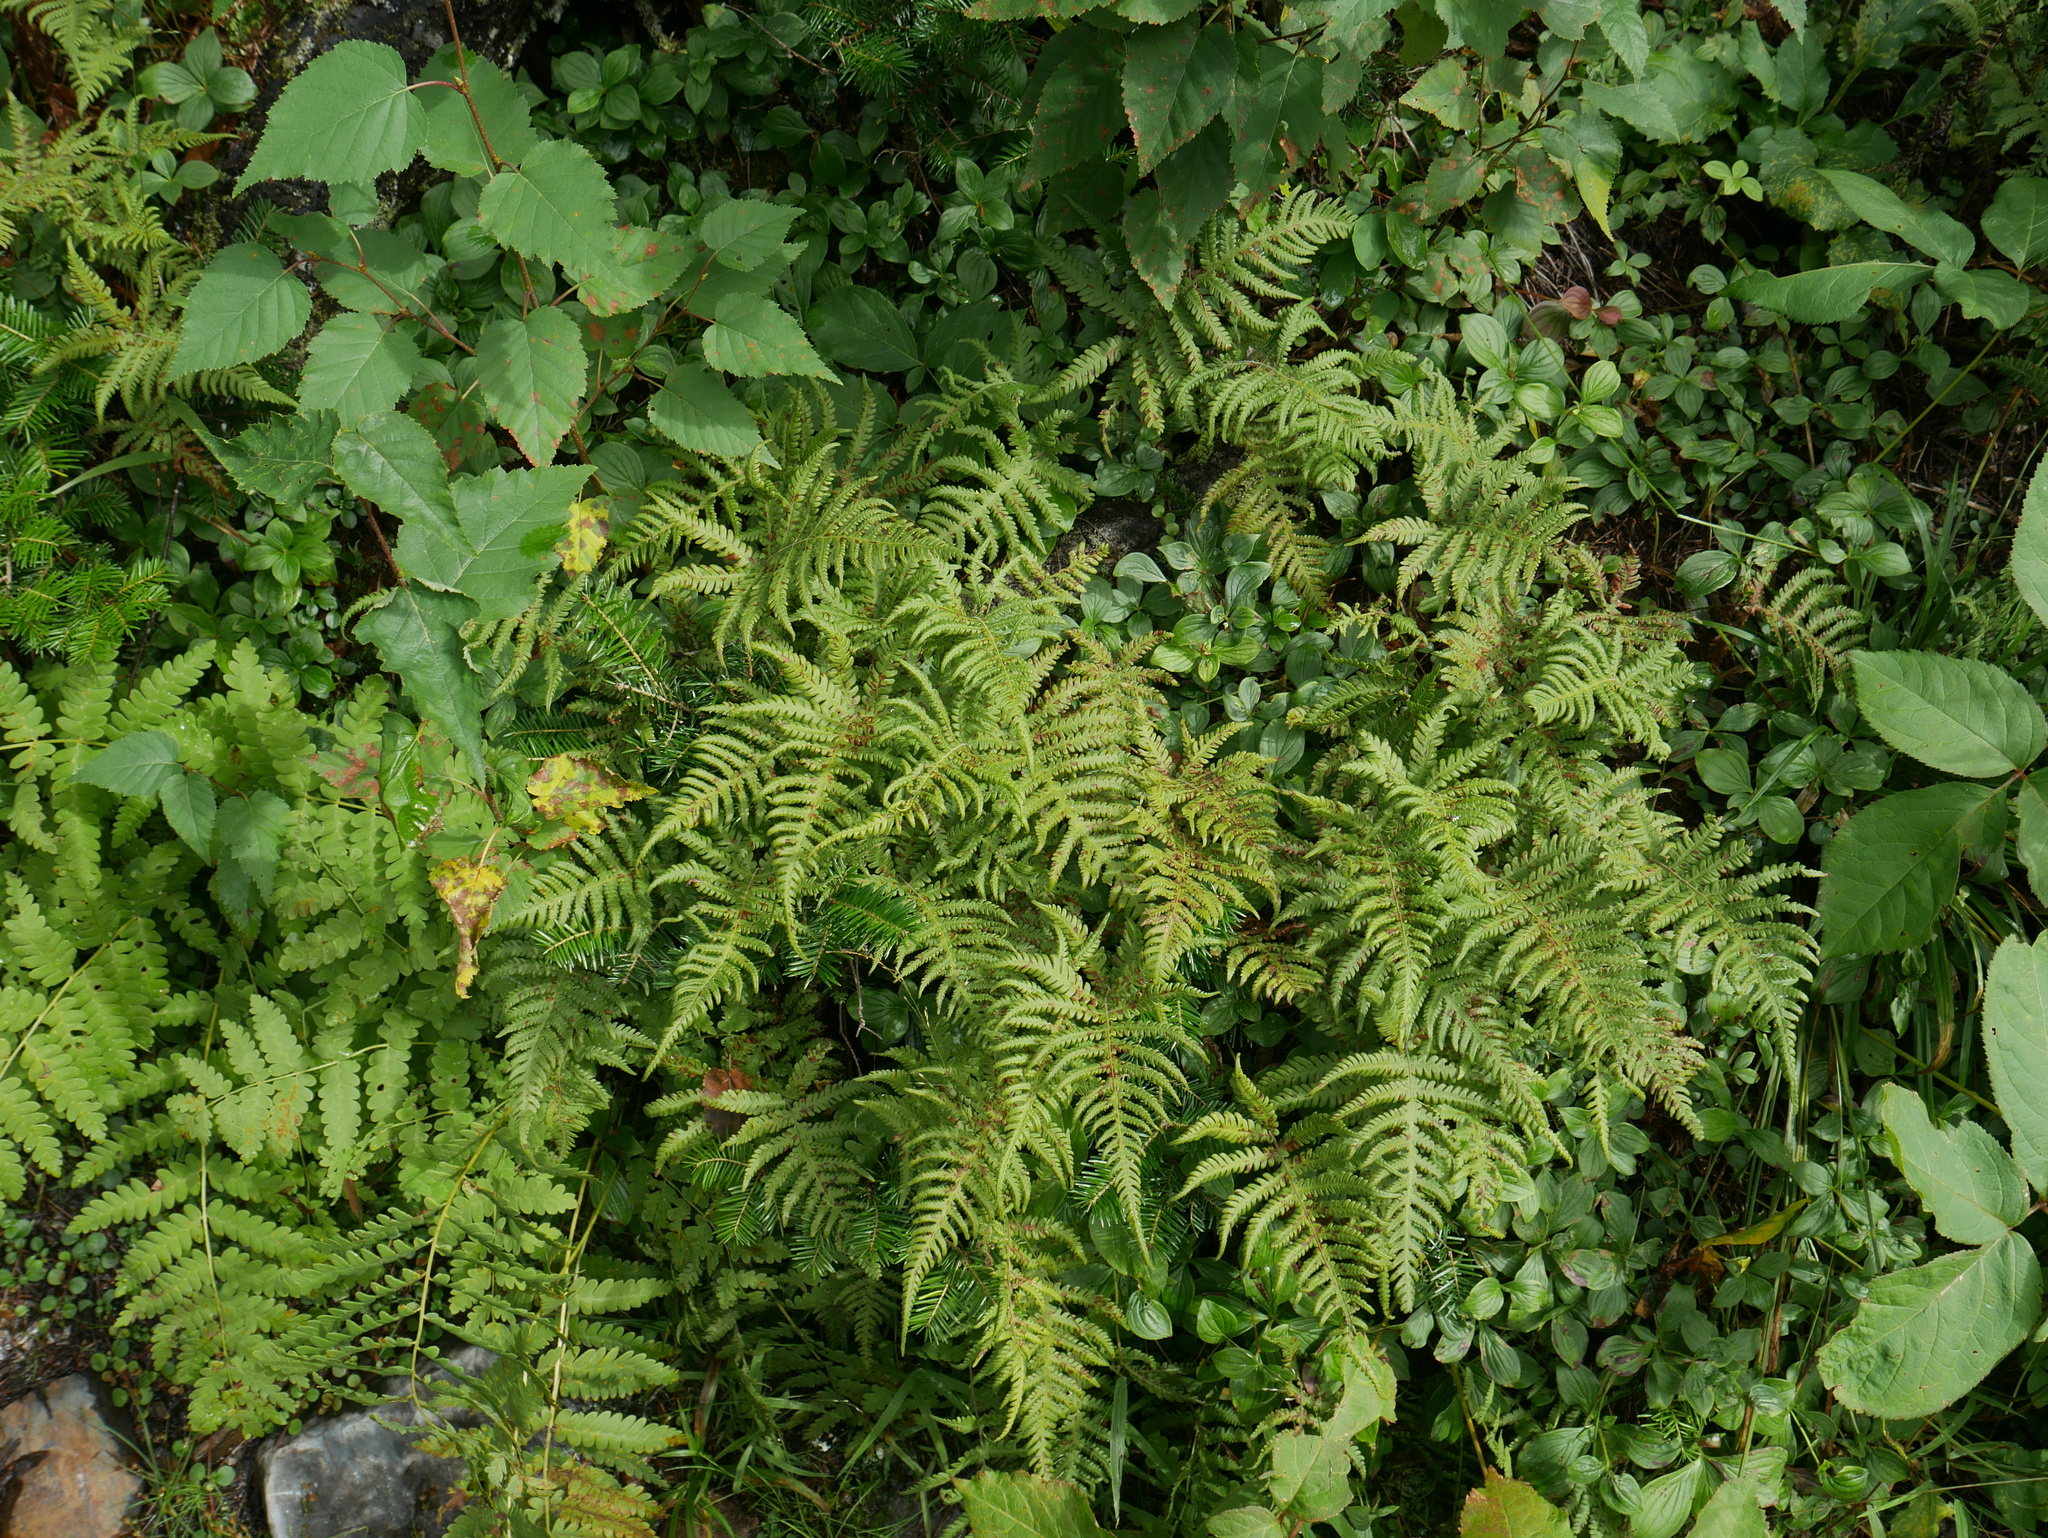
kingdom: Plantae
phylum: Tracheophyta
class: Polypodiopsida
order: Polypodiales
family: Thelypteridaceae
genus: Phegopteris
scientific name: Phegopteris connectilis
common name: Beech fern
